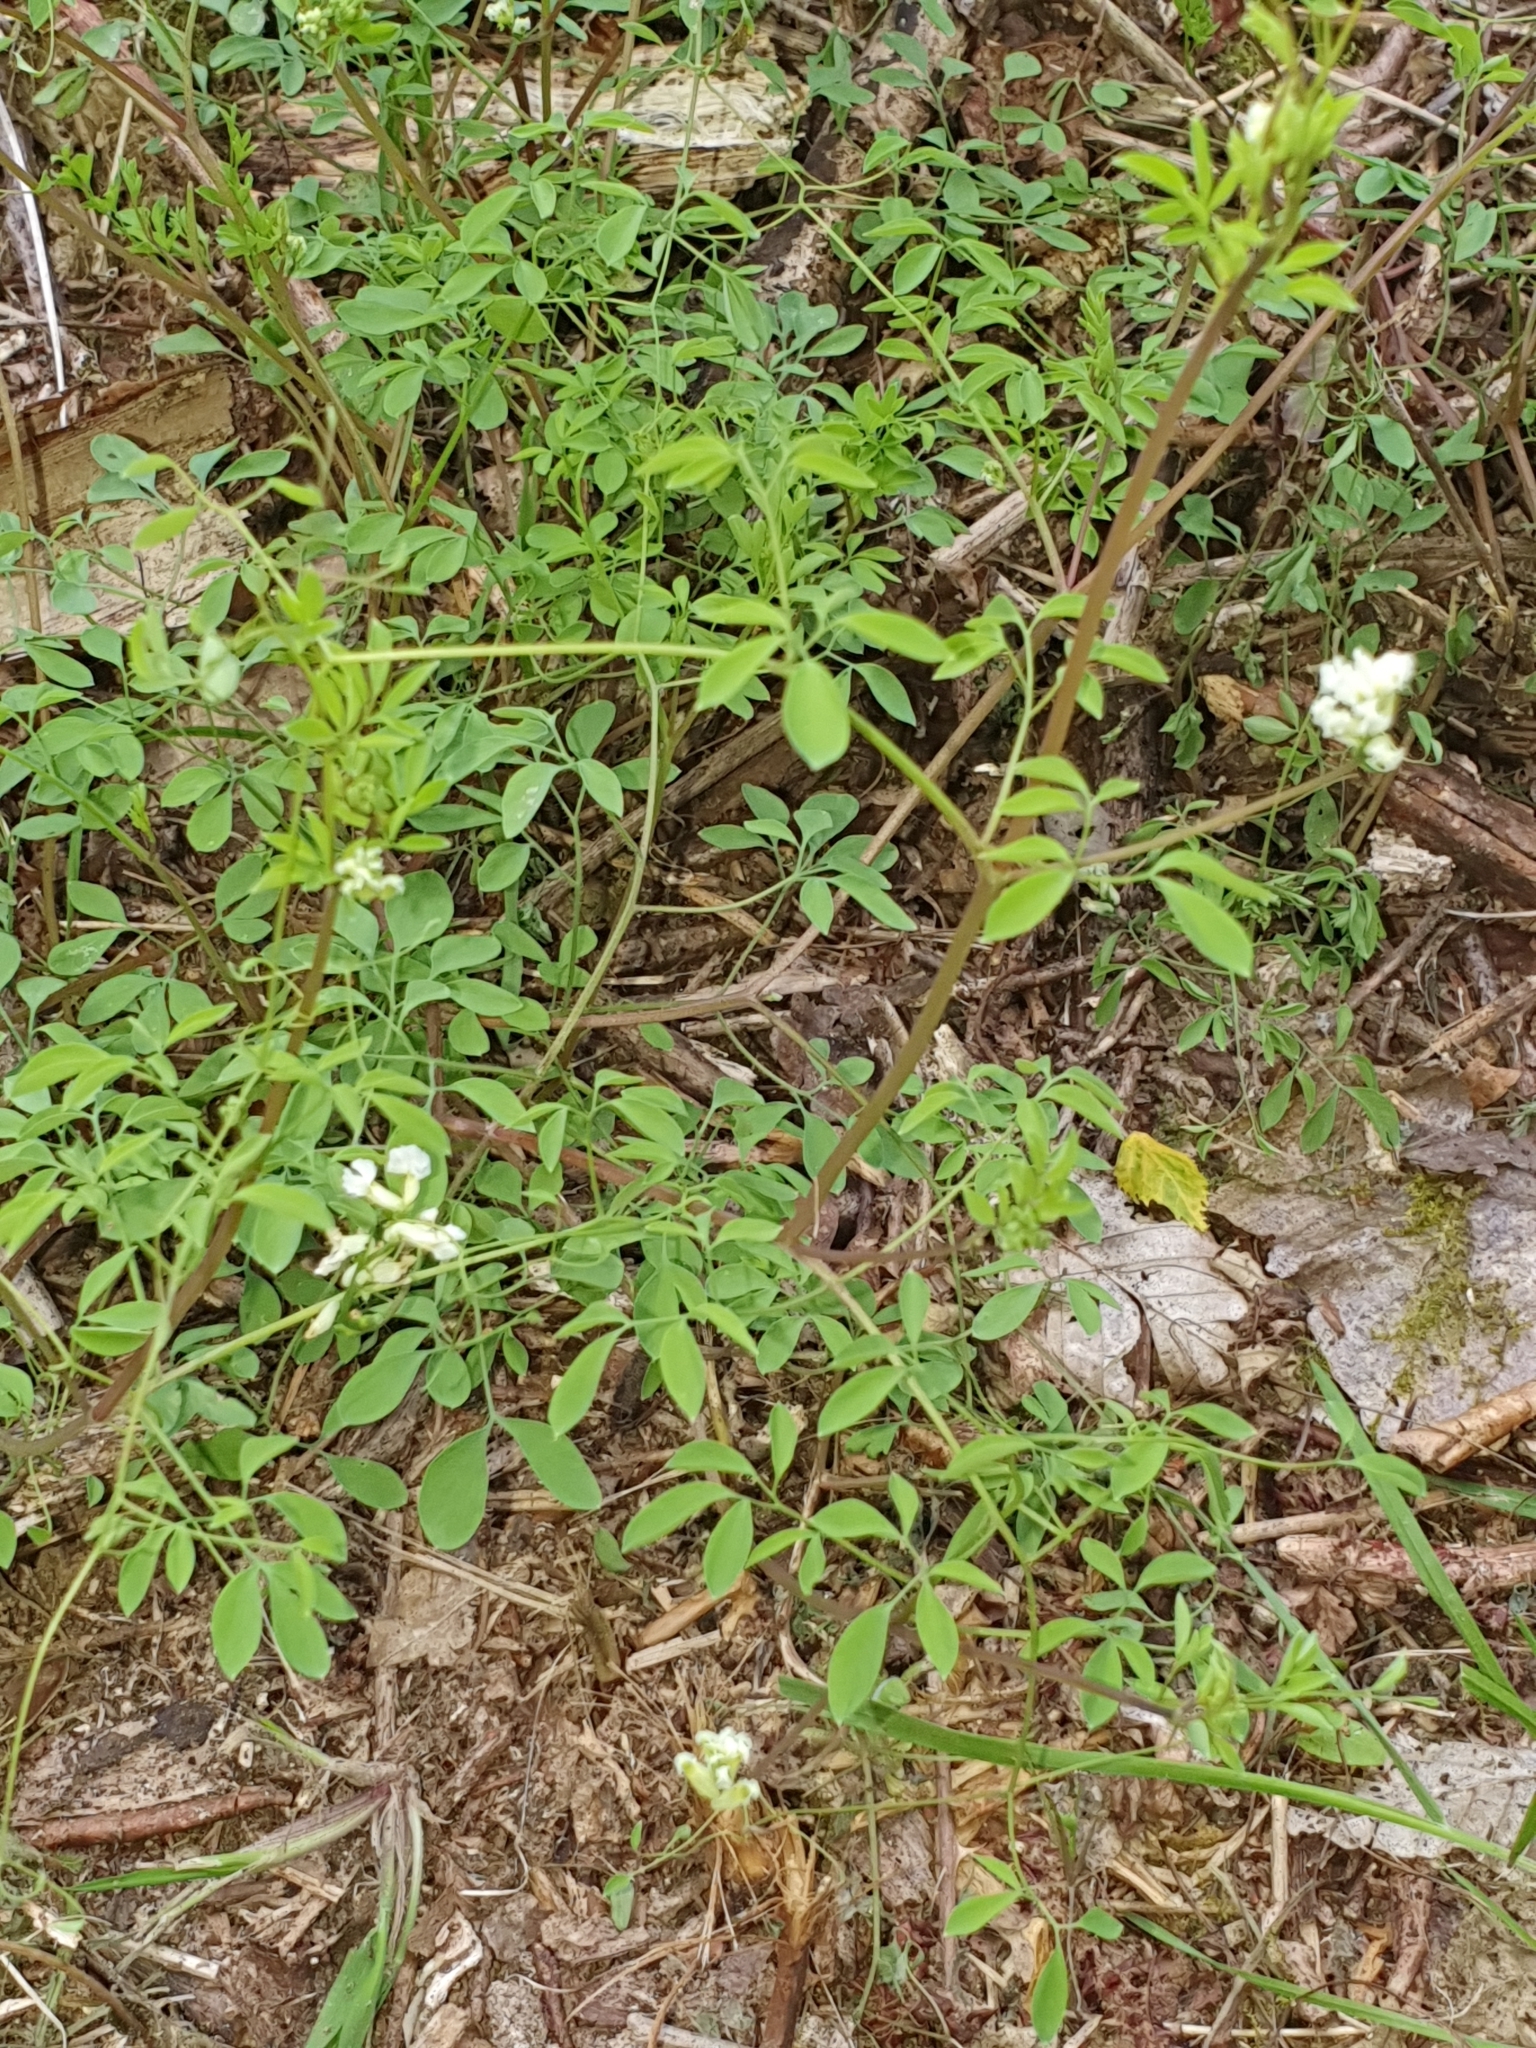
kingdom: Plantae
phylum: Tracheophyta
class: Magnoliopsida
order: Ranunculales
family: Papaveraceae
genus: Ceratocapnos
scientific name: Ceratocapnos claviculata
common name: Climbing corydalis
